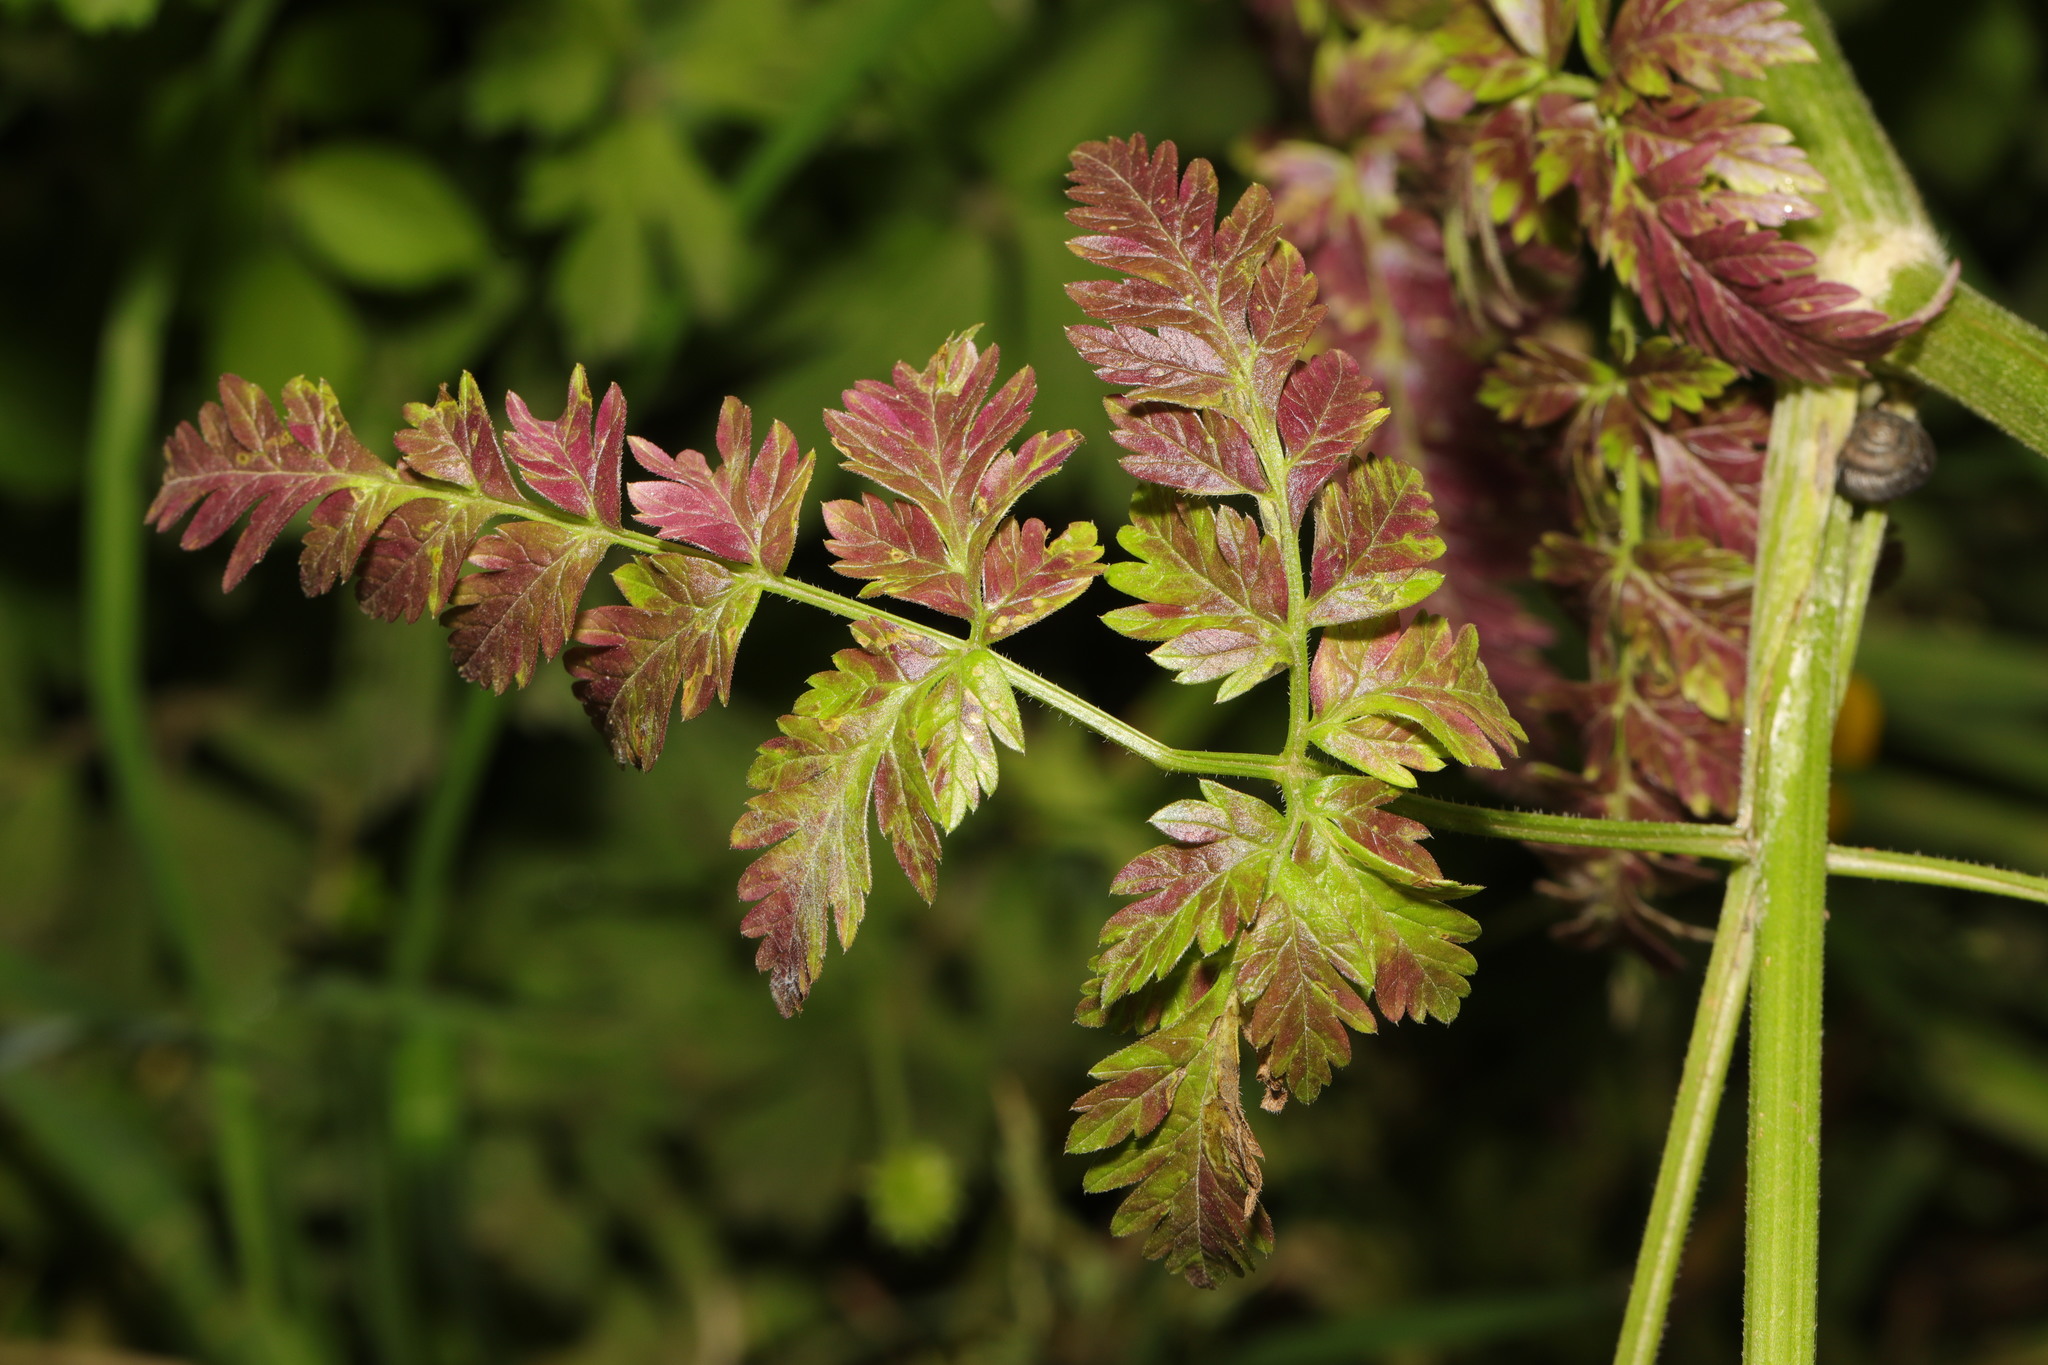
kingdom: Plantae
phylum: Tracheophyta
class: Magnoliopsida
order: Apiales
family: Apiaceae
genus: Chaerophyllum
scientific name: Chaerophyllum temulum
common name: Rough chervil
